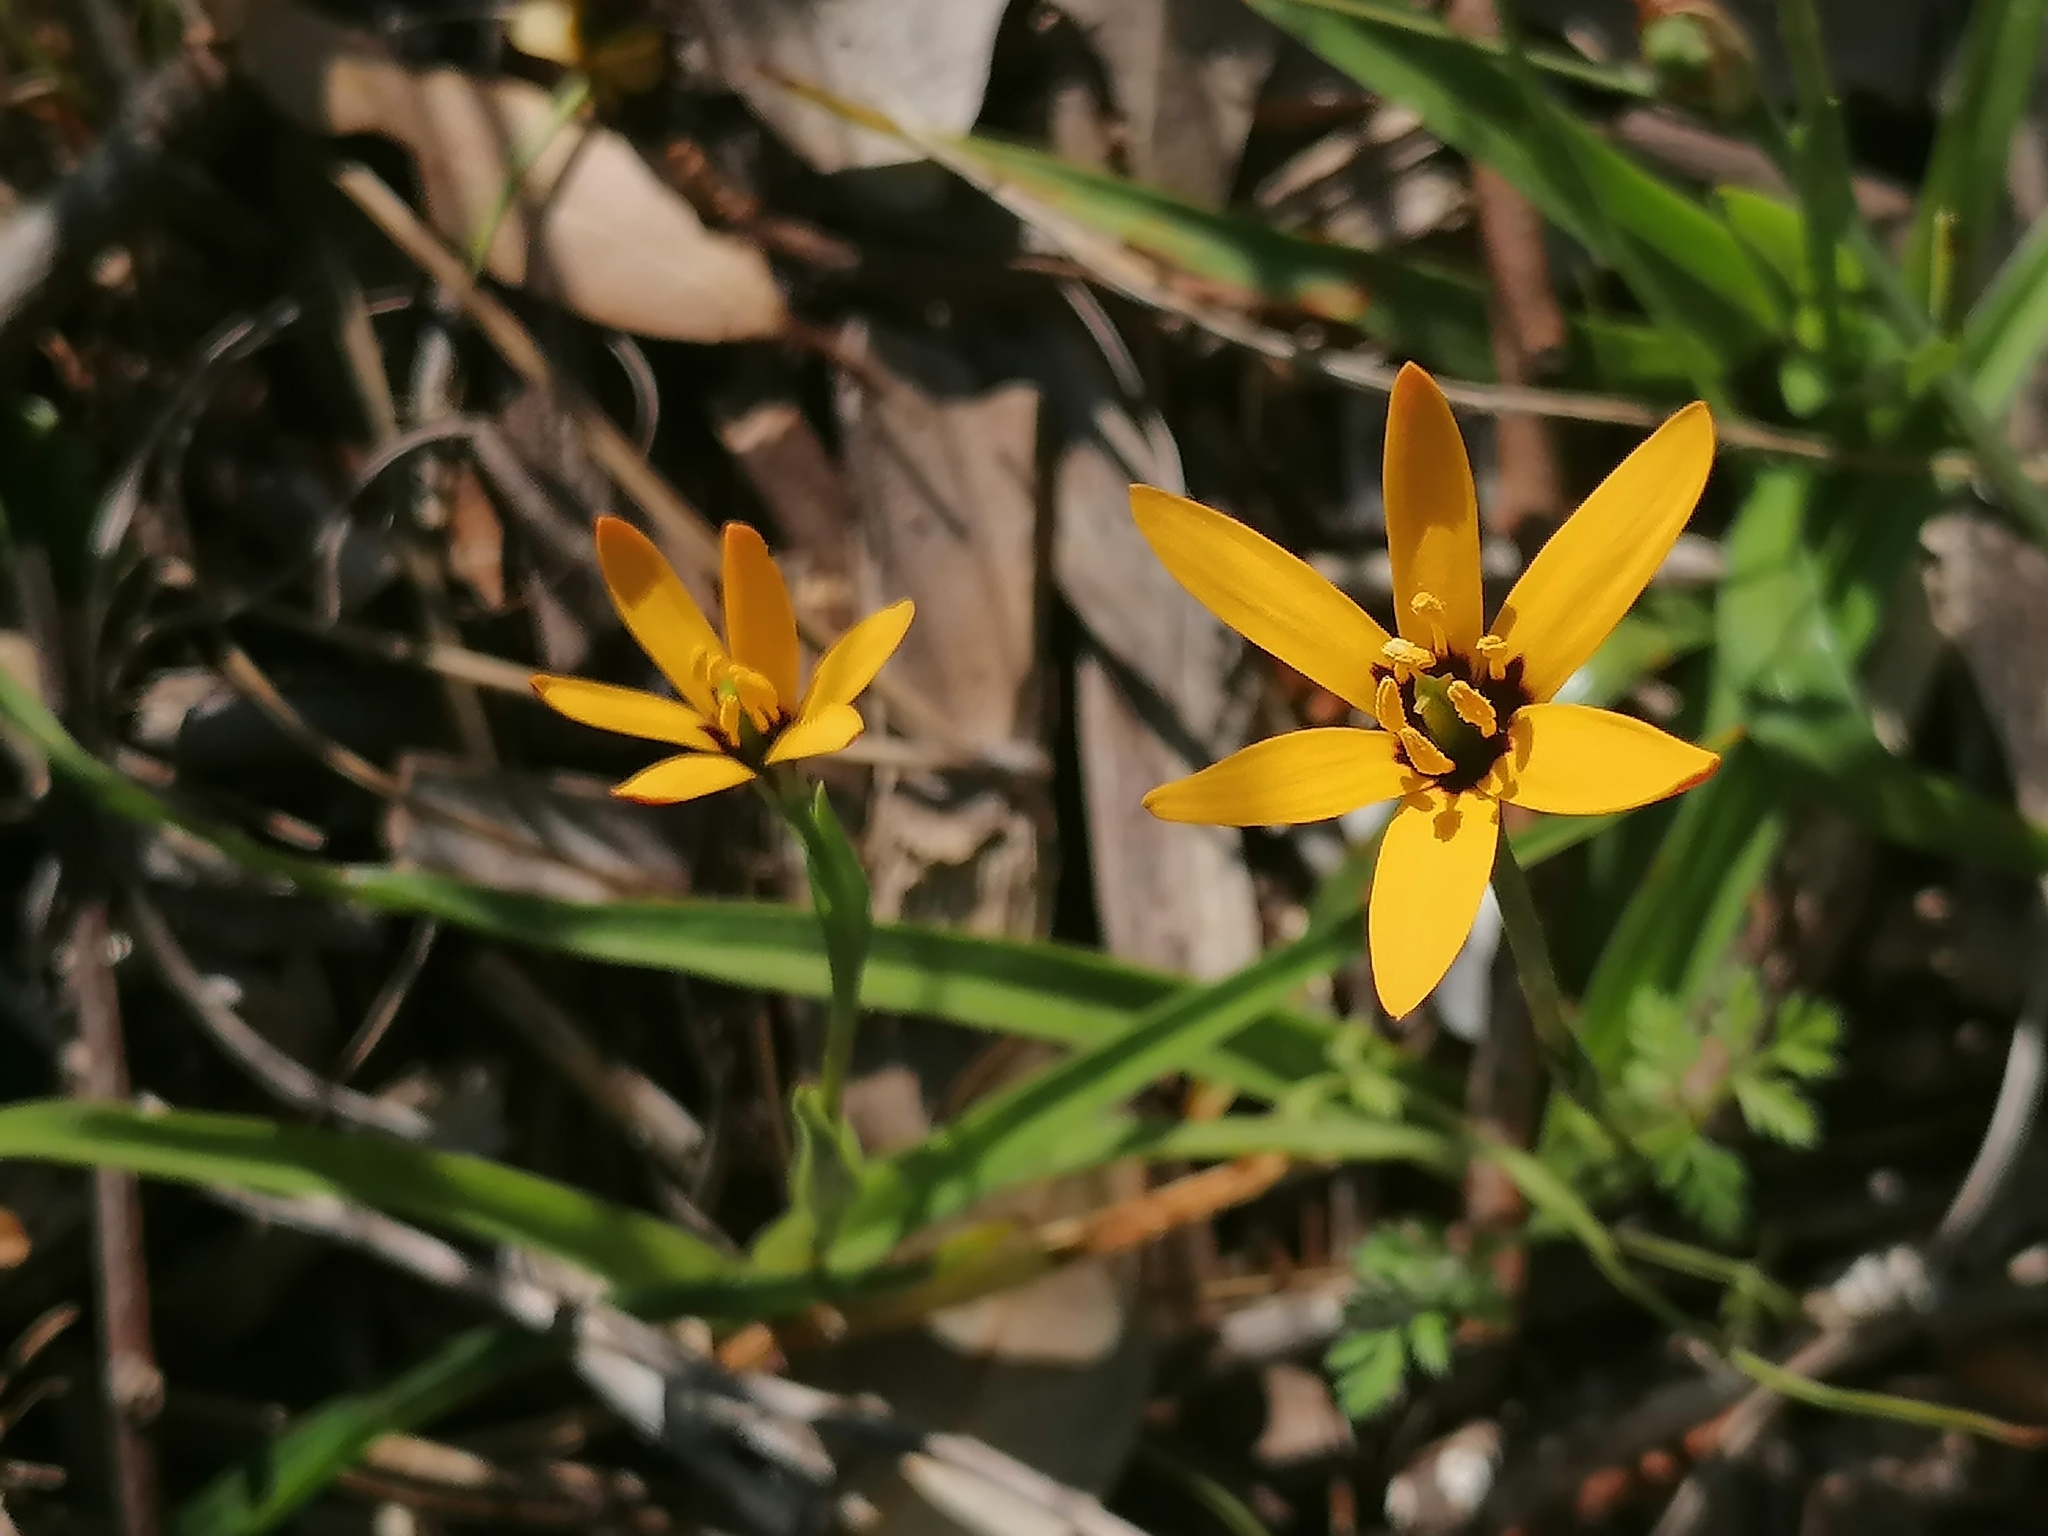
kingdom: Plantae
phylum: Tracheophyta
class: Liliopsida
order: Liliales
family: Colchicaceae
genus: Baeometra
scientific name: Baeometra uniflora
